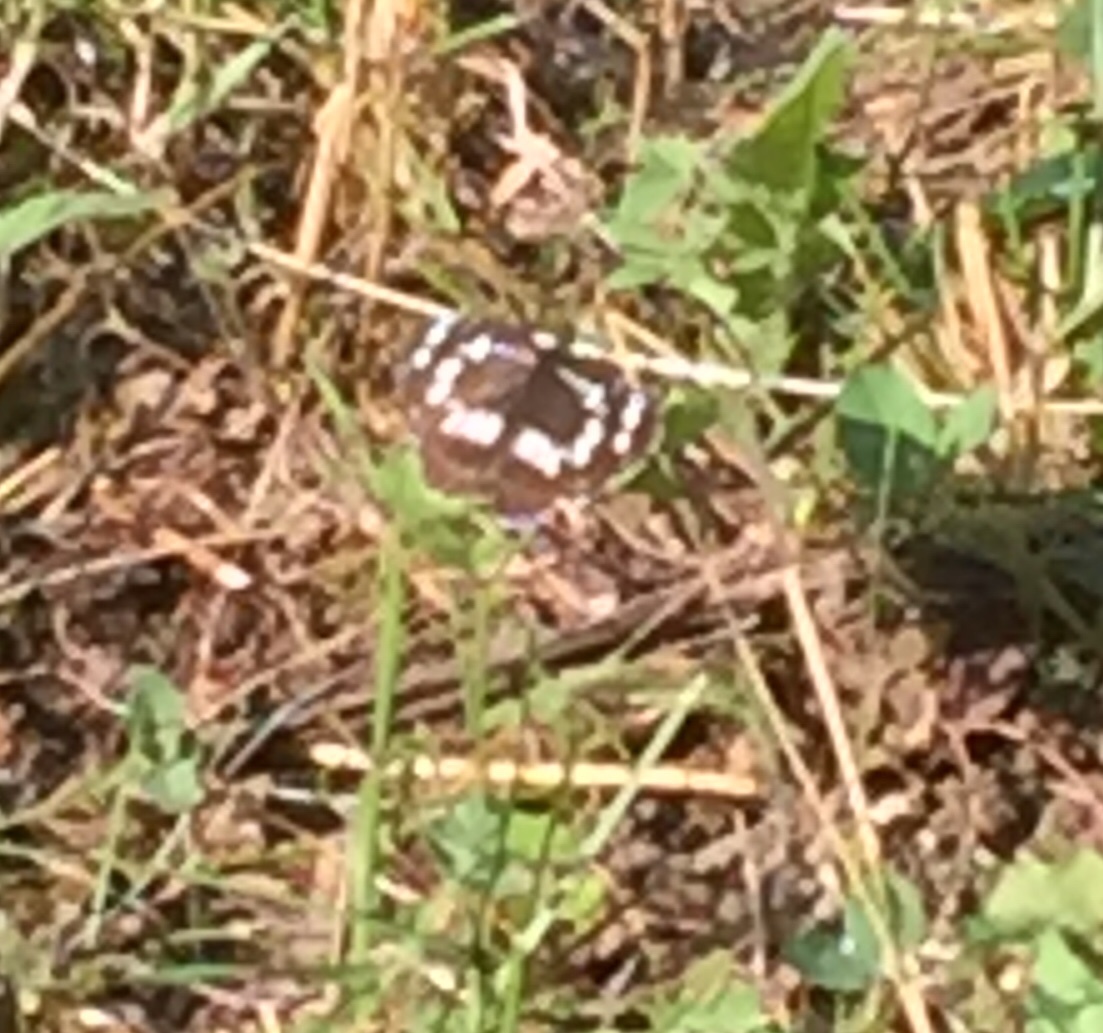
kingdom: Animalia
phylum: Arthropoda
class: Insecta
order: Lepidoptera
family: Nymphalidae
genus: Neptis
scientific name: Neptis rivularis
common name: Hungarian glider
